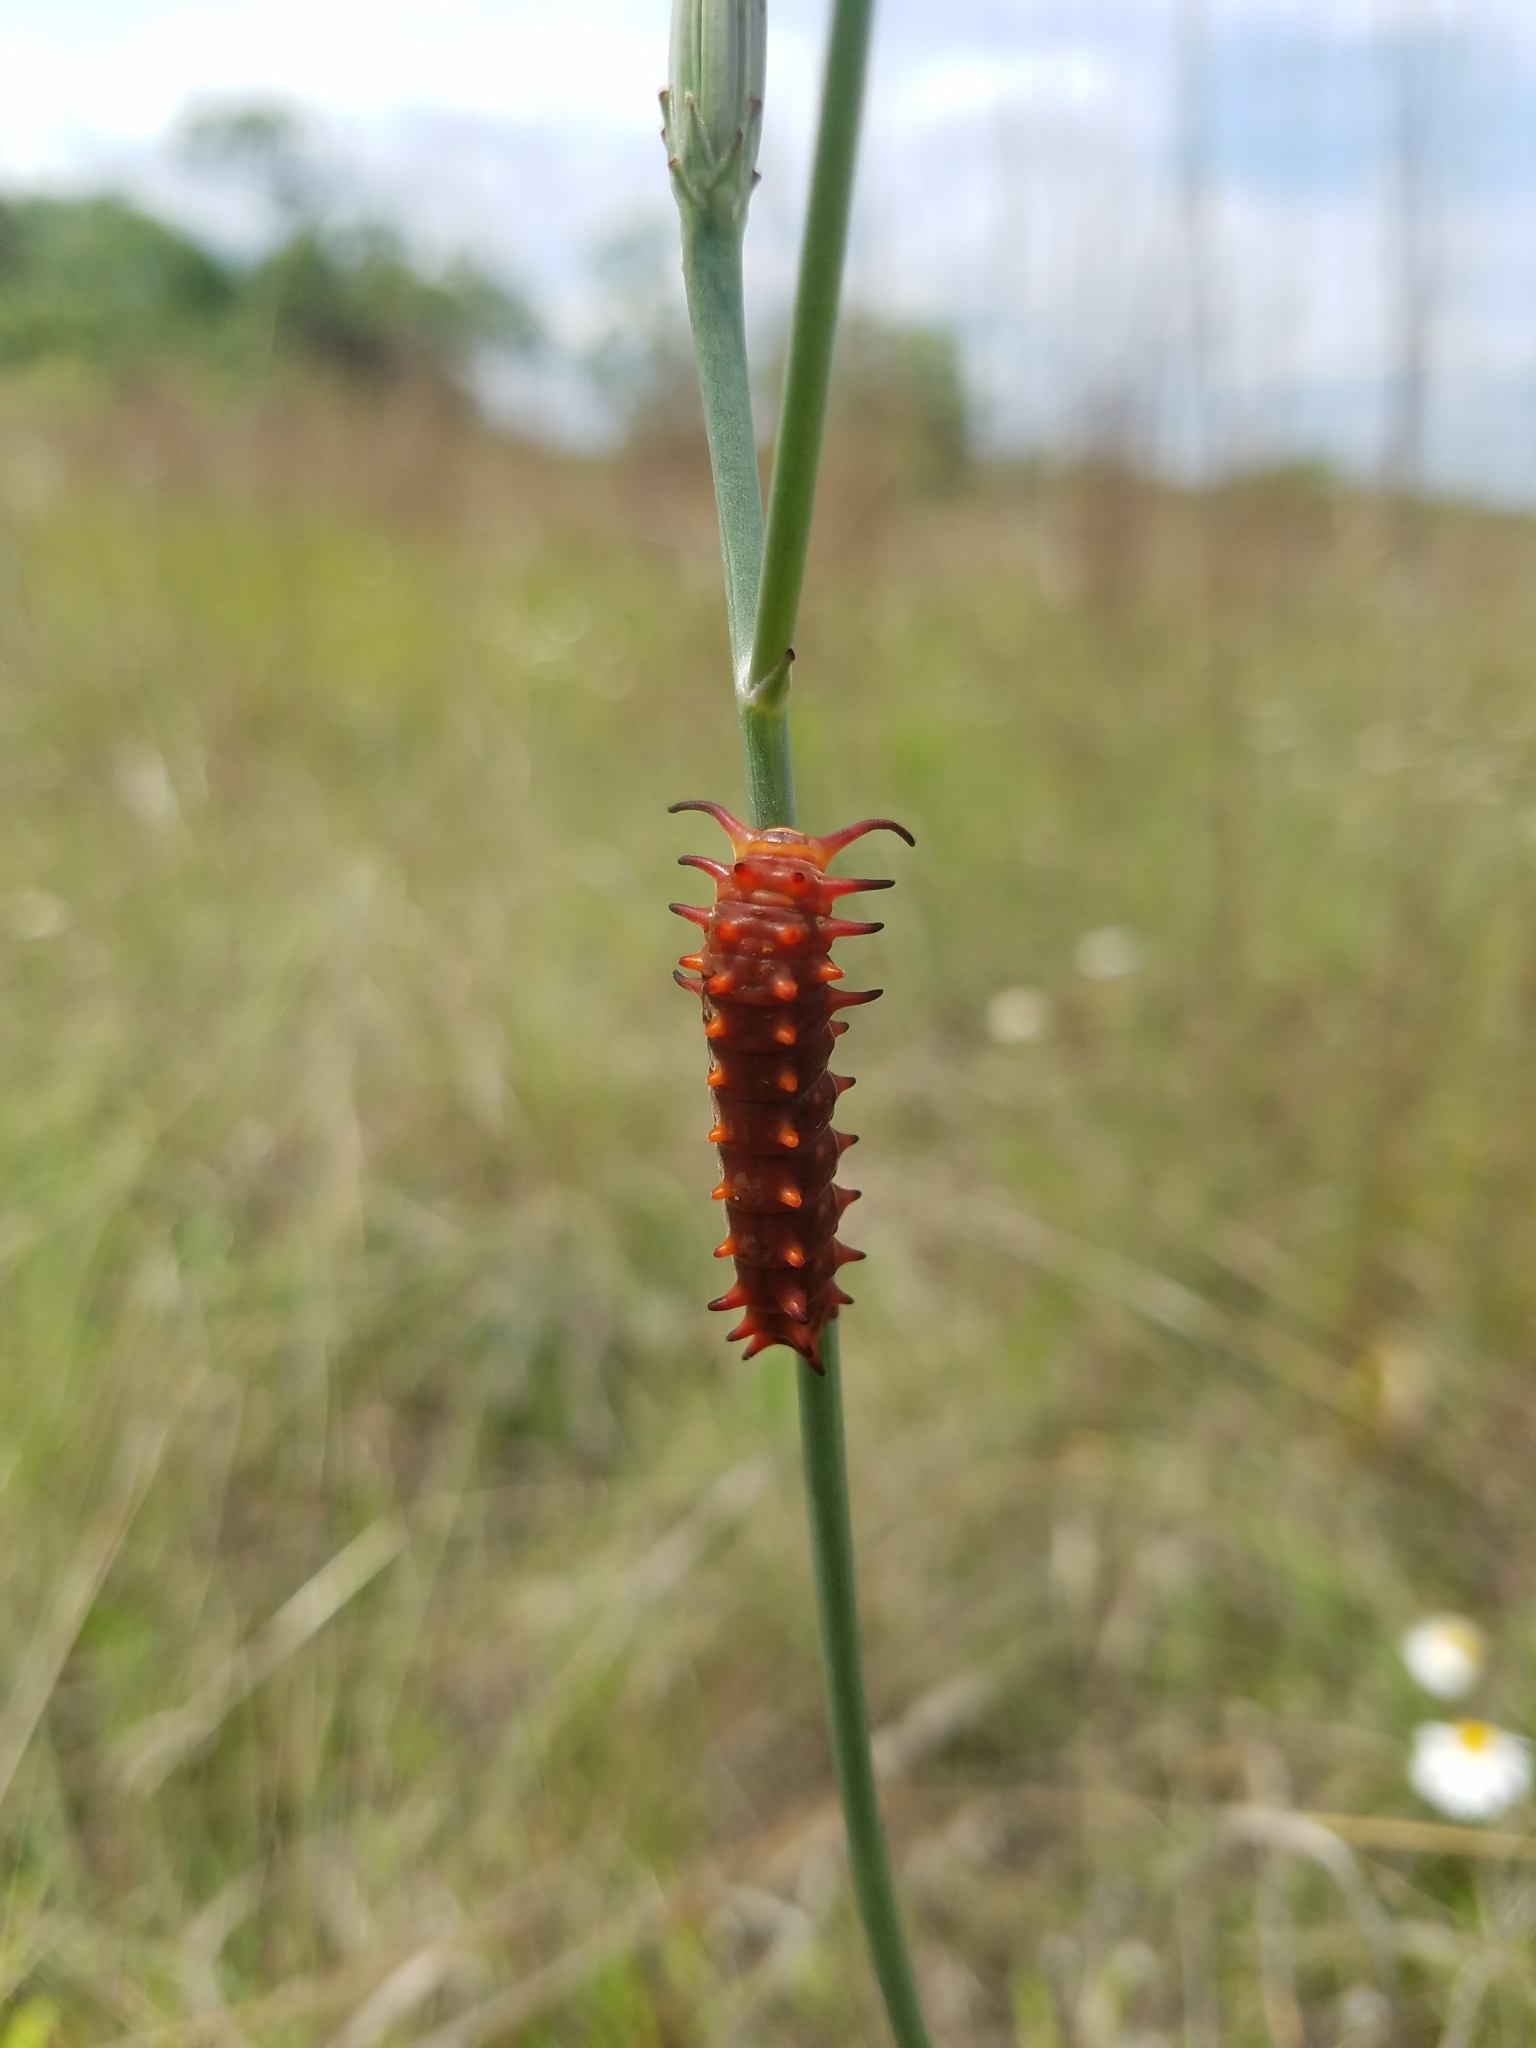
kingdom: Animalia
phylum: Arthropoda
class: Insecta
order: Lepidoptera
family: Papilionidae
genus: Battus
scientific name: Battus philenor
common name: Pipevine swallowtail
